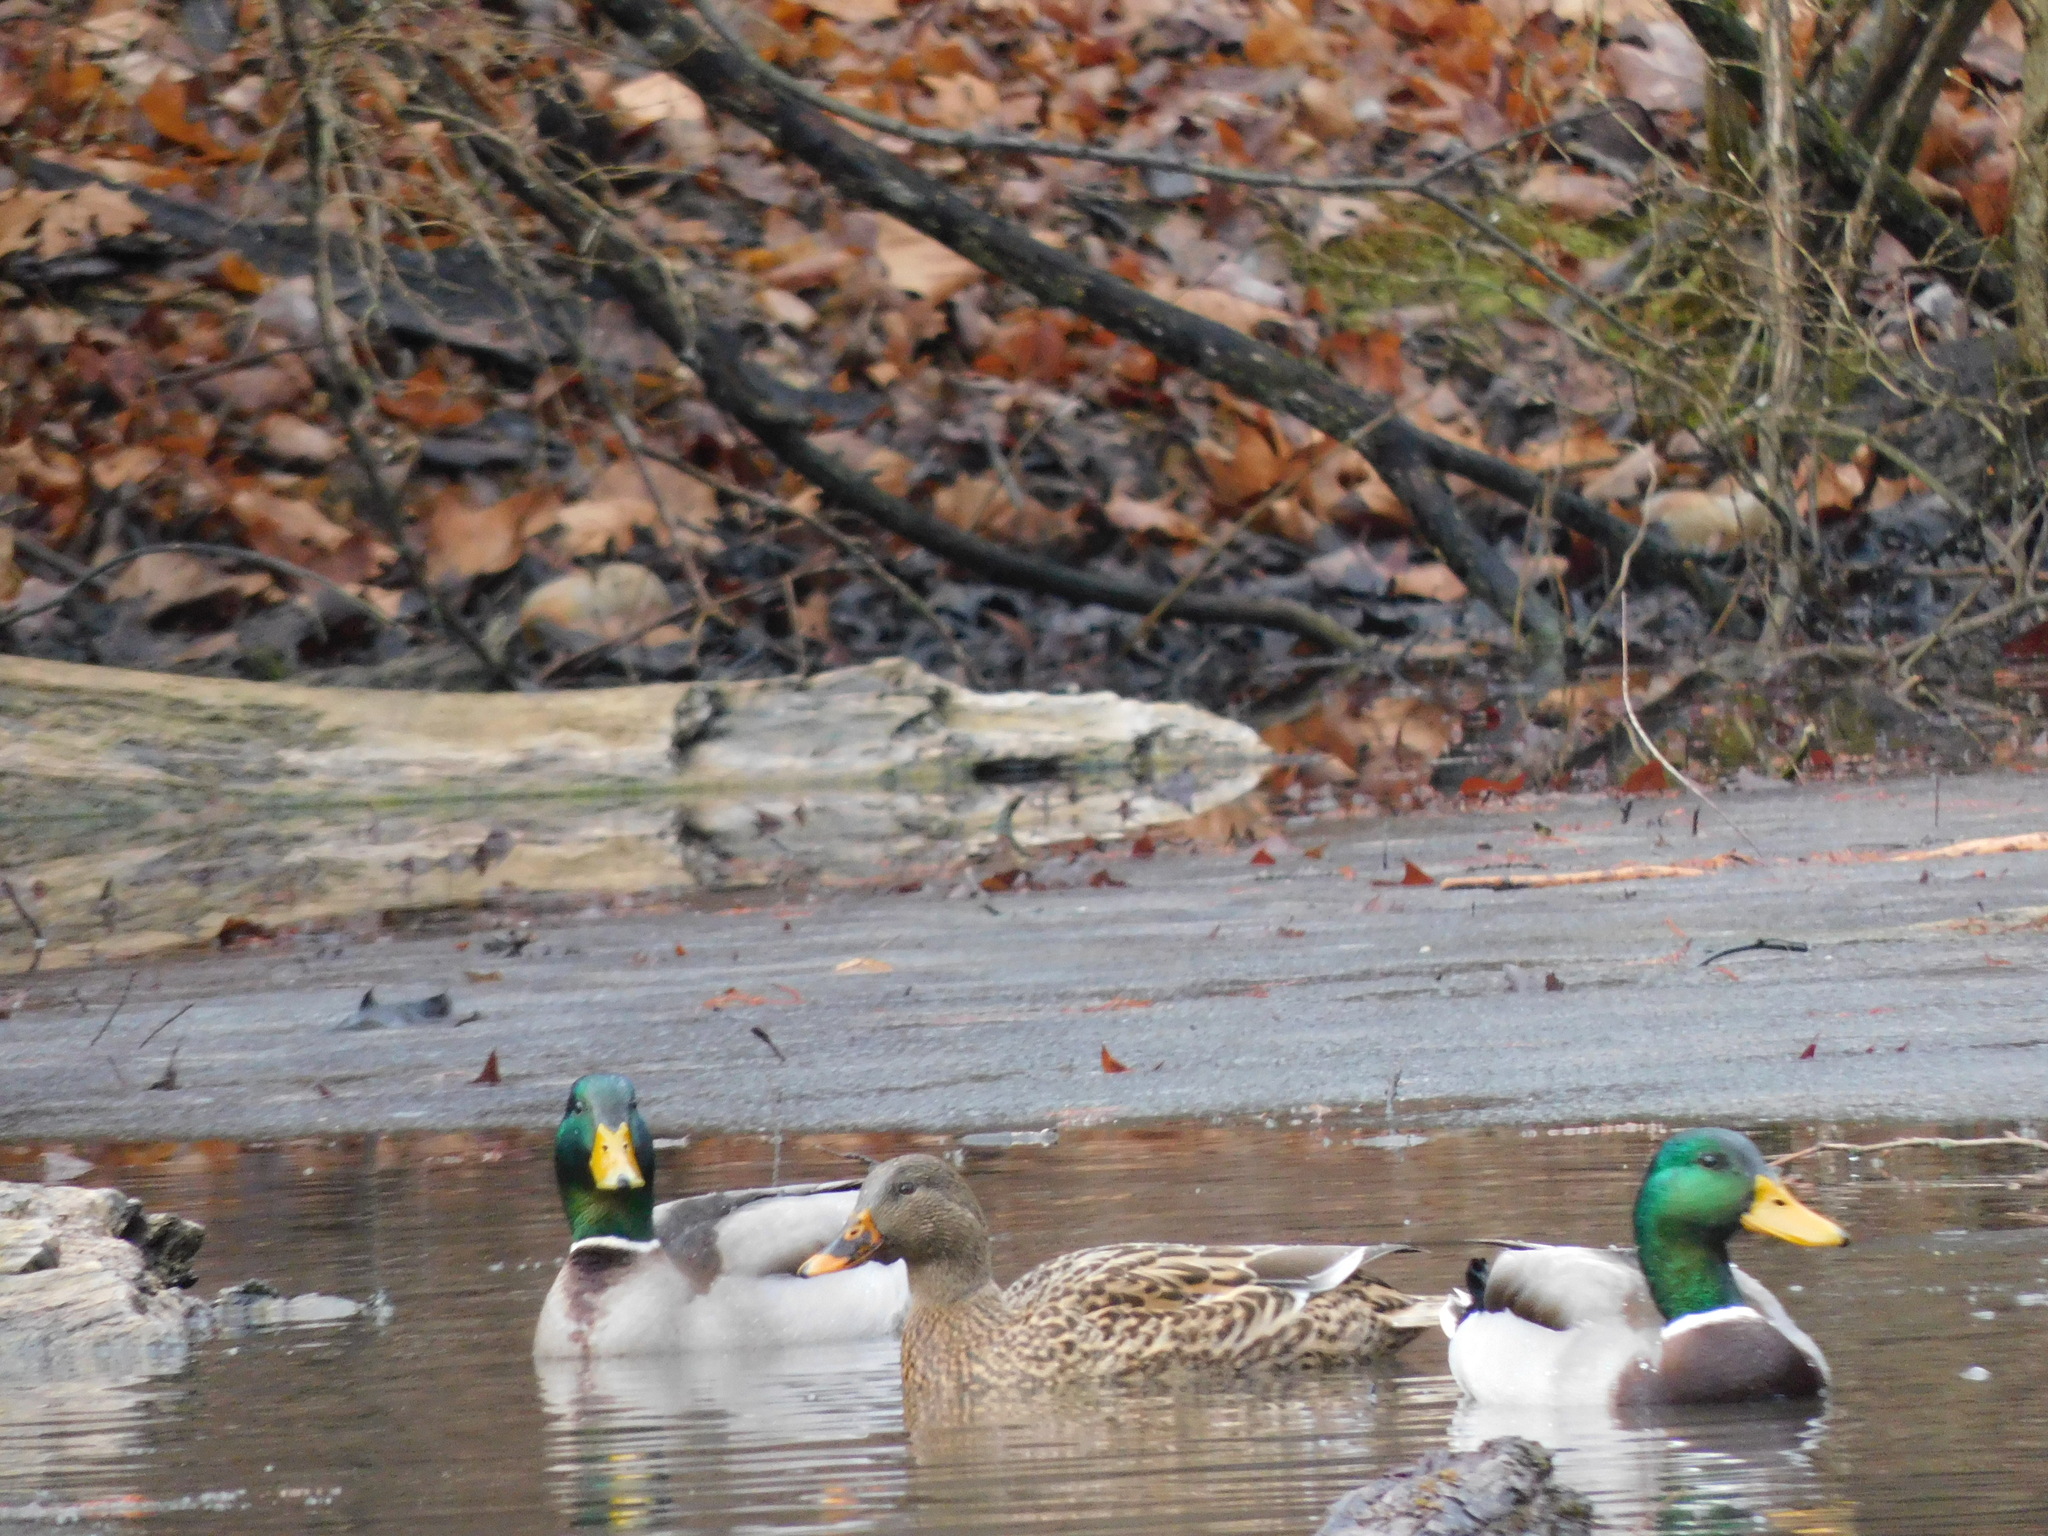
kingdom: Animalia
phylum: Chordata
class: Aves
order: Anseriformes
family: Anatidae
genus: Anas
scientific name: Anas platyrhynchos
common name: Mallard
